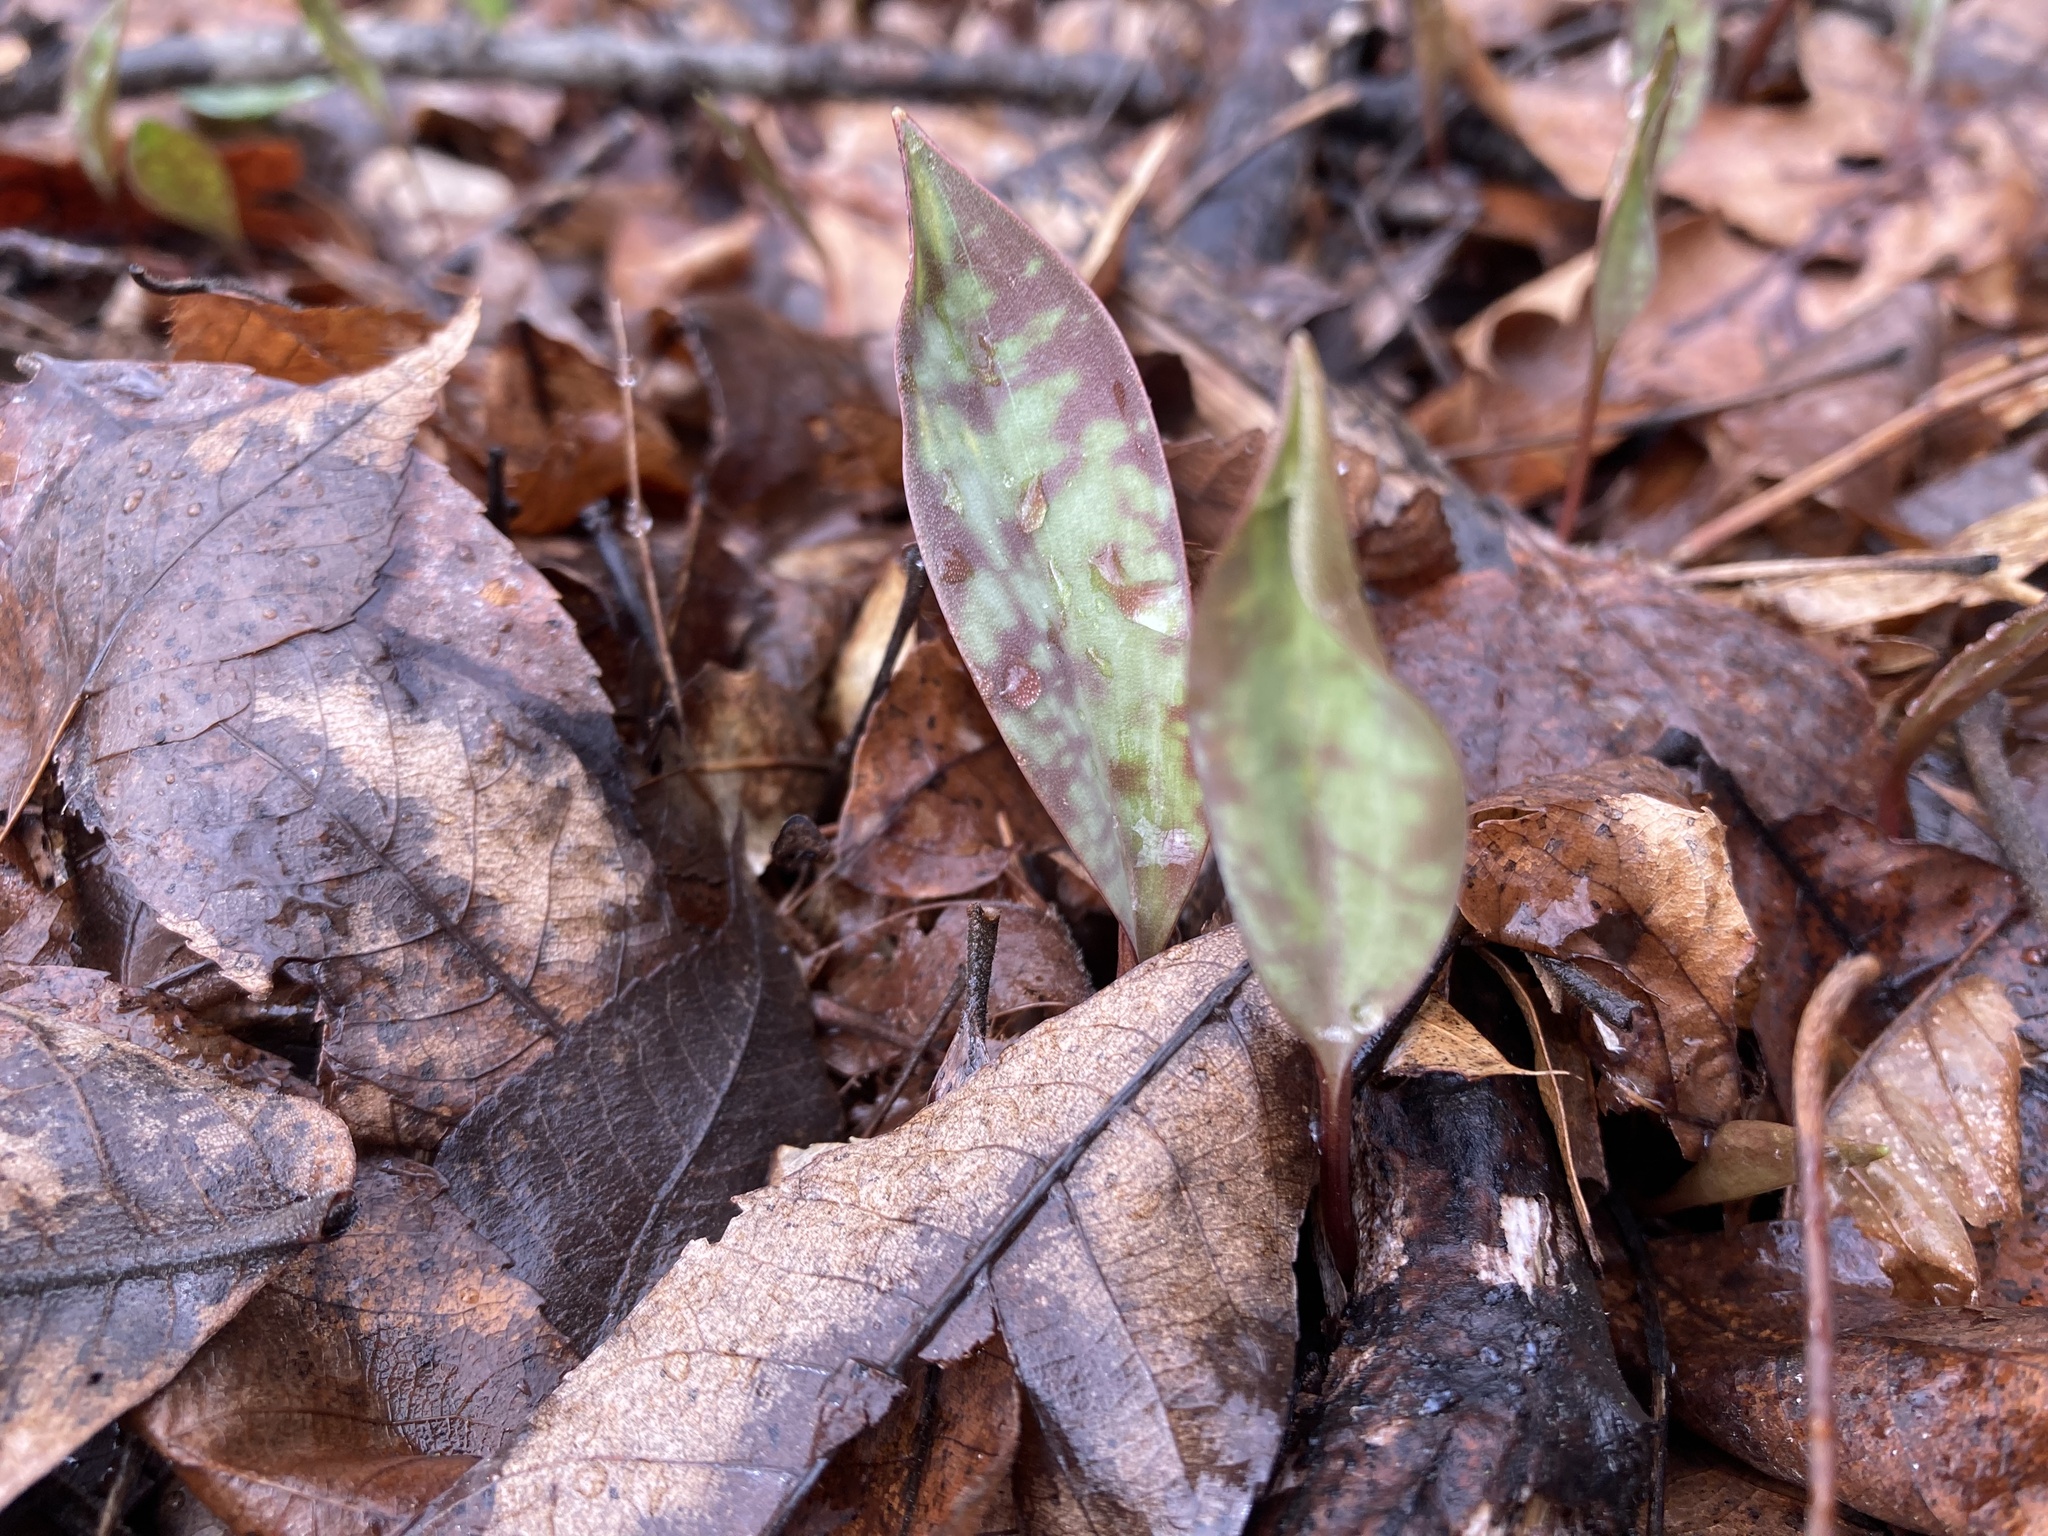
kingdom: Plantae
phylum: Tracheophyta
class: Liliopsida
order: Liliales
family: Liliaceae
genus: Erythronium
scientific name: Erythronium americanum
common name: Yellow adder's-tongue
